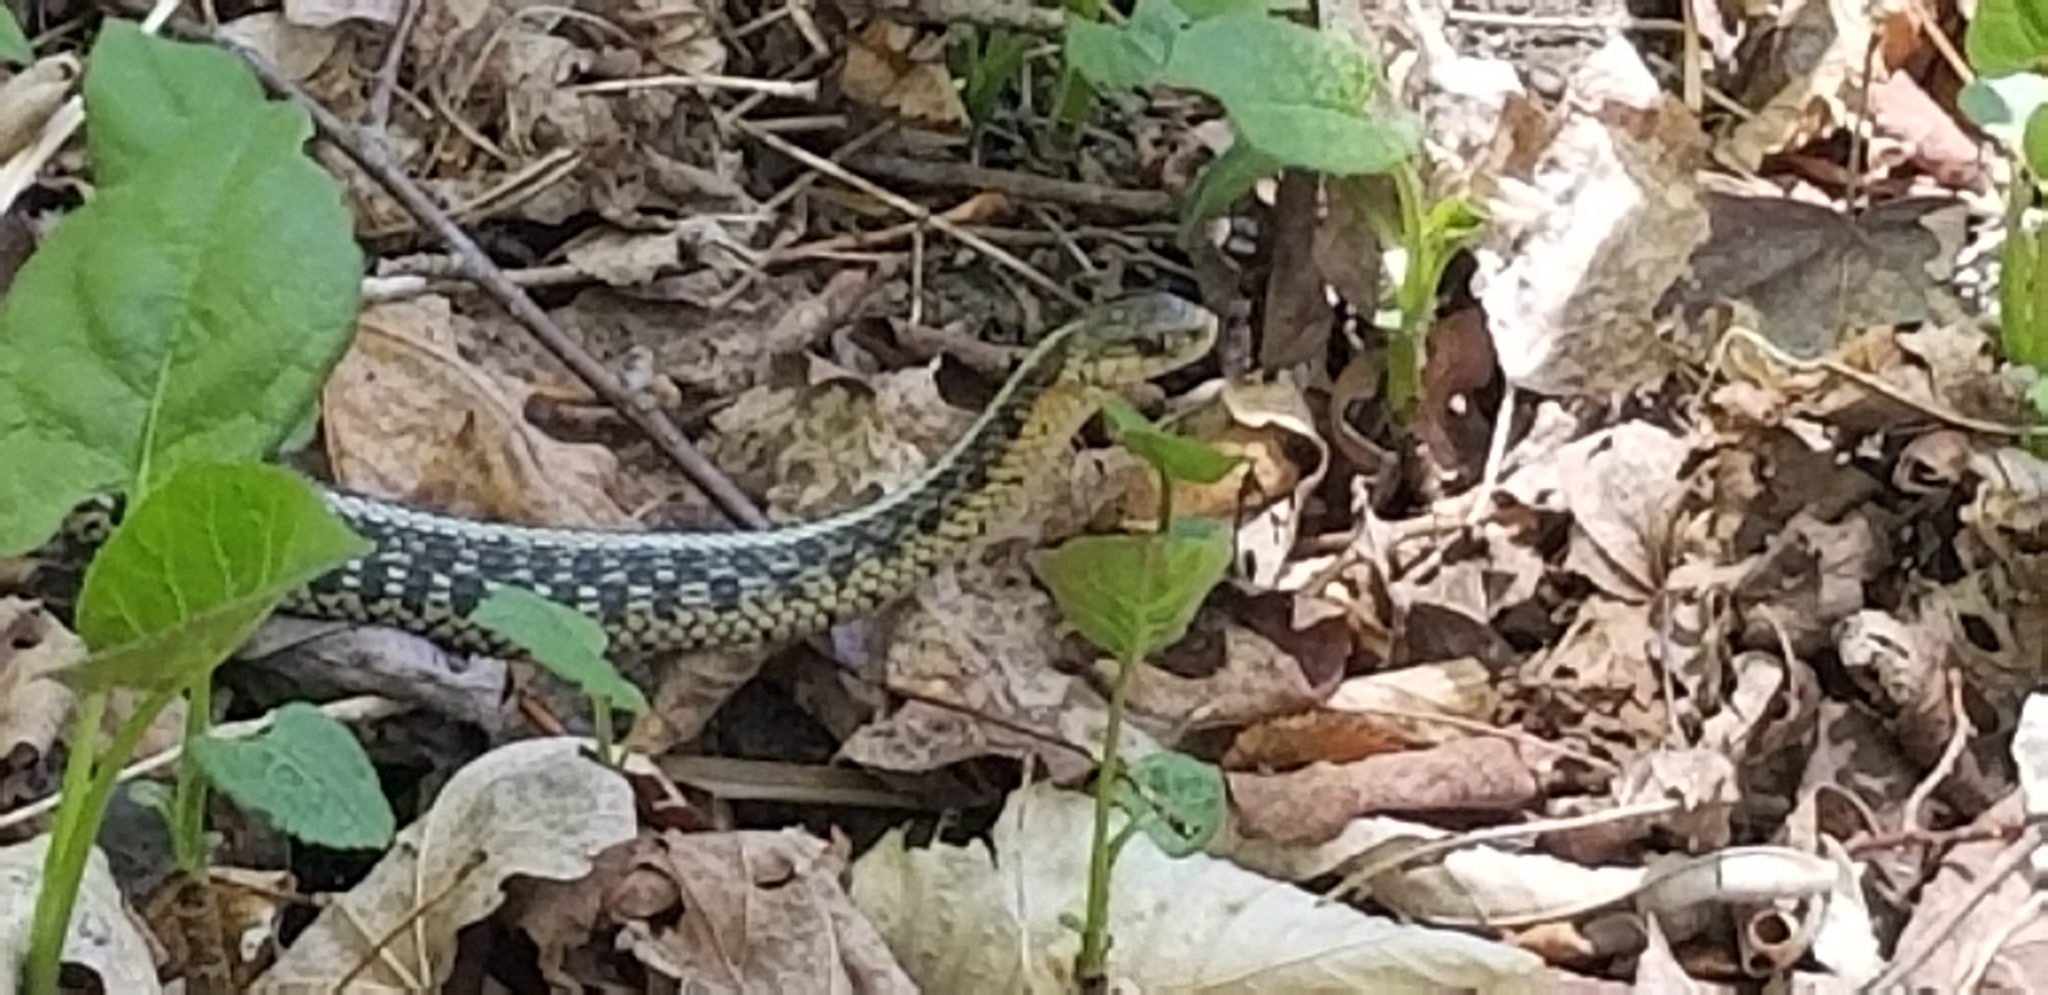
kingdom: Animalia
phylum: Chordata
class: Squamata
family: Colubridae
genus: Thamnophis
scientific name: Thamnophis sirtalis
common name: Common garter snake
